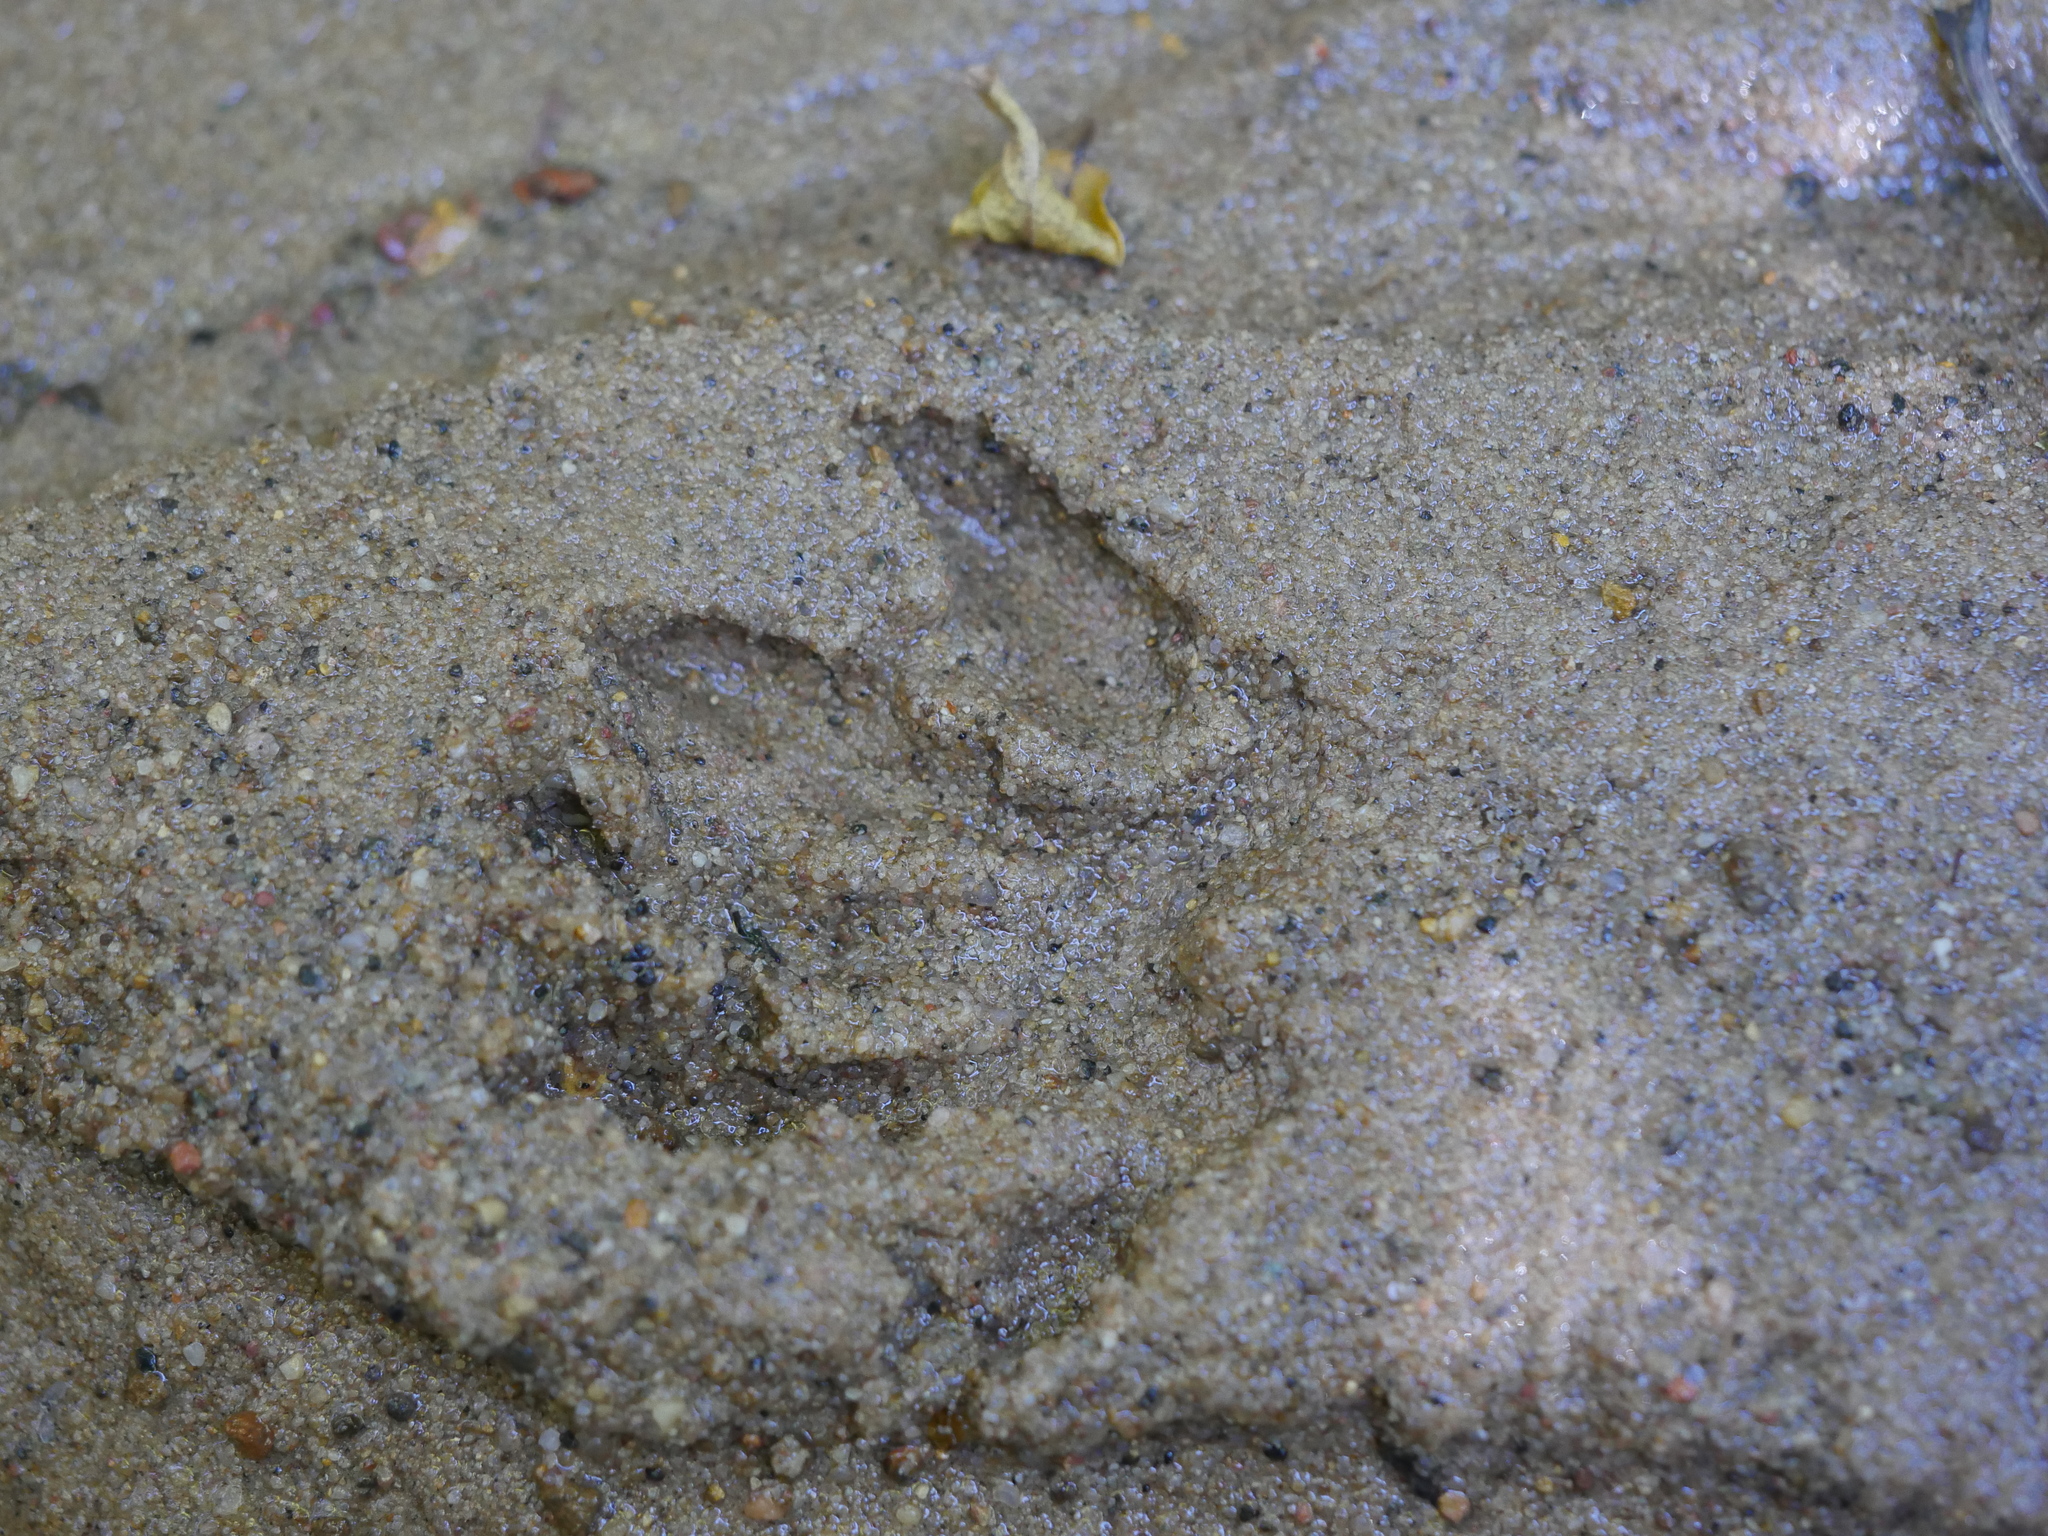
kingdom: Animalia
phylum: Chordata
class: Mammalia
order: Carnivora
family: Procyonidae
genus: Procyon
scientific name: Procyon lotor
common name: Raccoon
